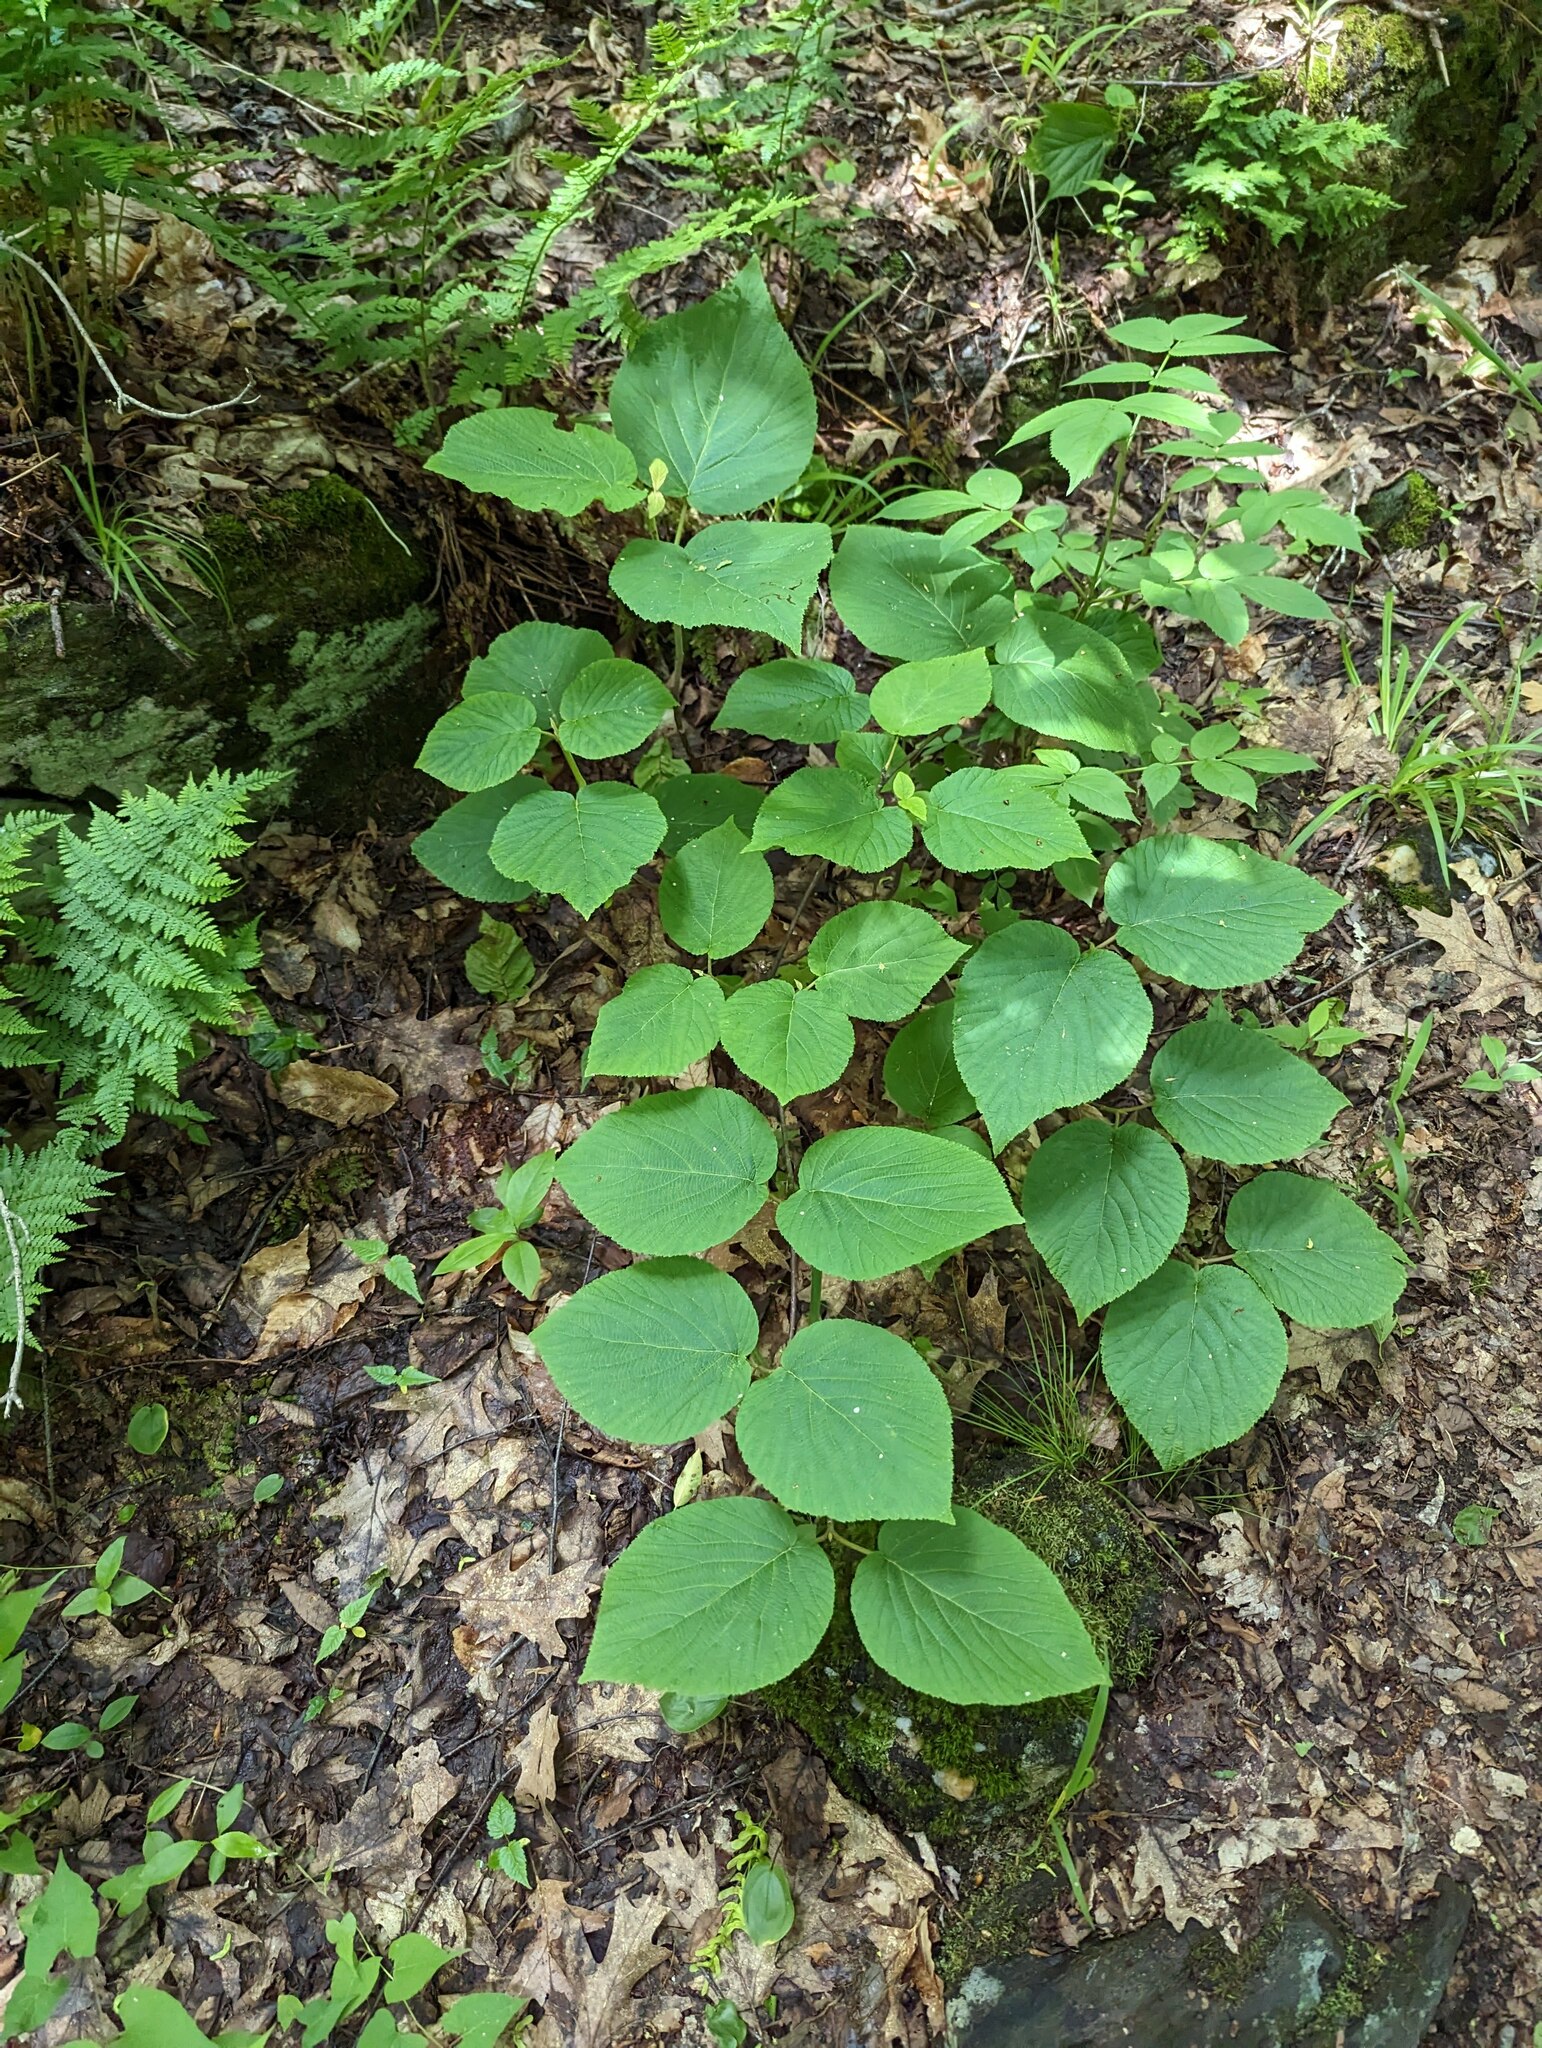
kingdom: Plantae
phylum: Tracheophyta
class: Magnoliopsida
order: Dipsacales
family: Viburnaceae
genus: Viburnum
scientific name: Viburnum lantanoides
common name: Hobblebush
